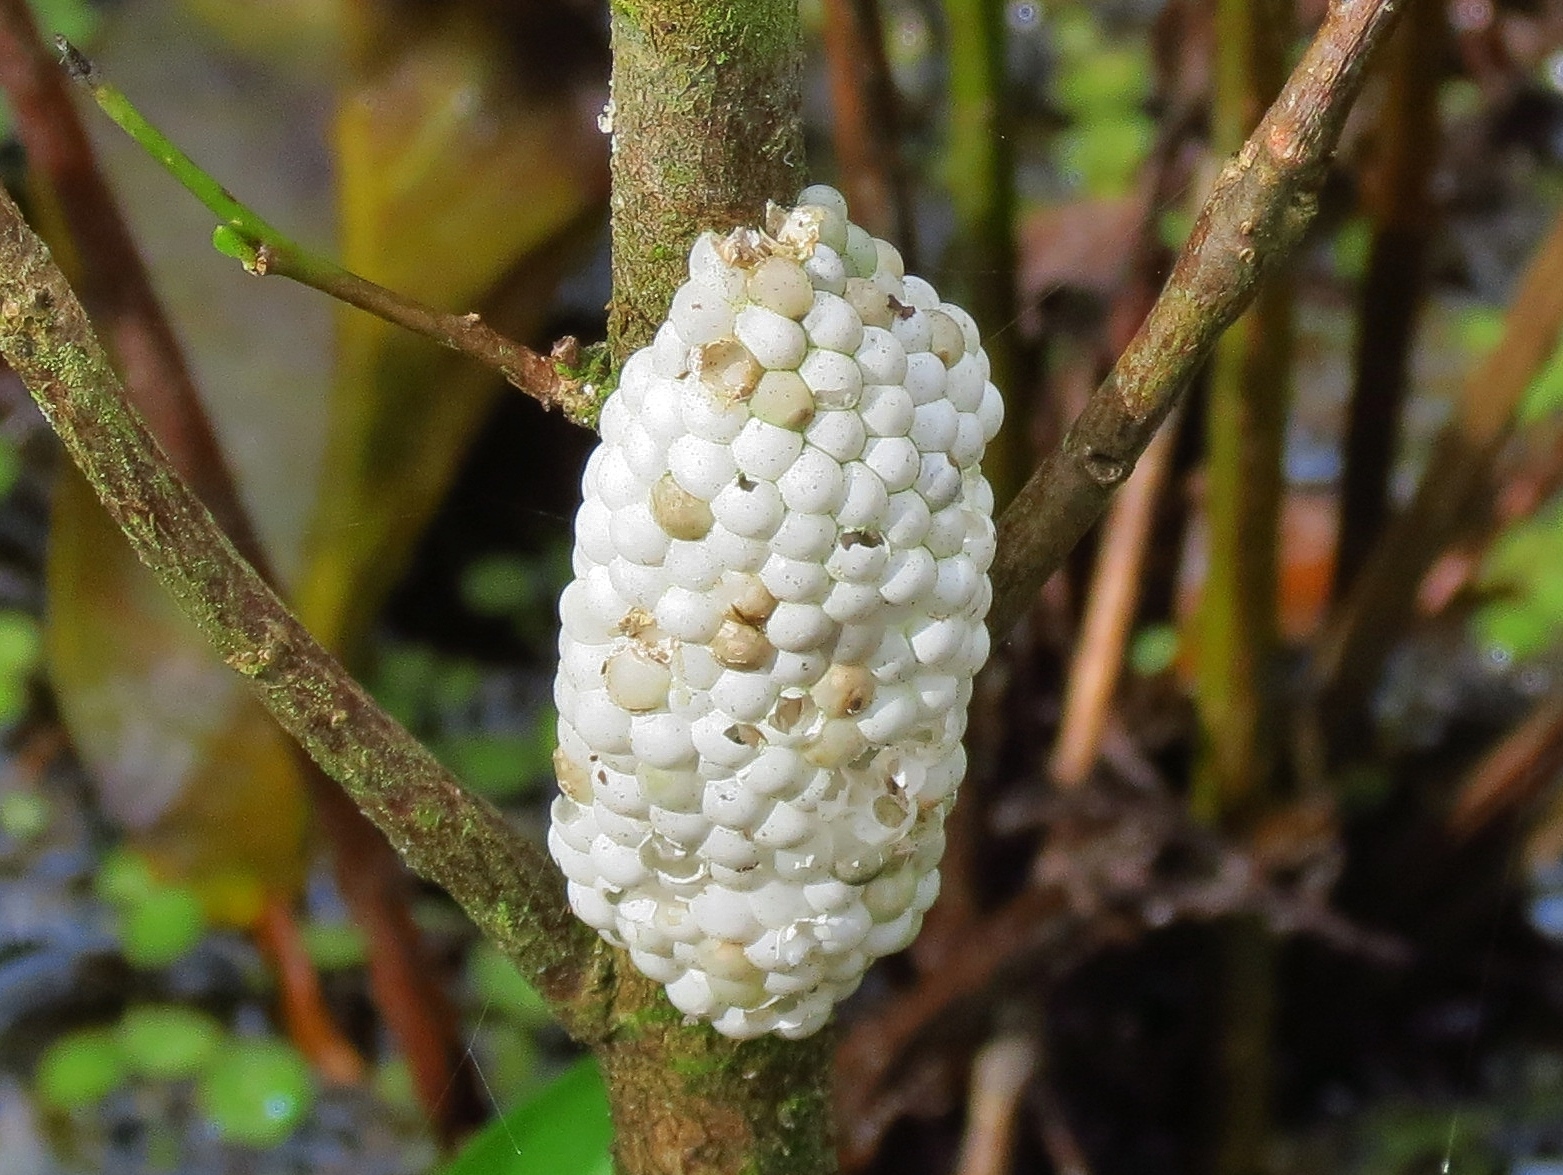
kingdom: Animalia
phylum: Mollusca
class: Gastropoda
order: Architaenioglossa
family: Ampullariidae
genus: Pomacea
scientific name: Pomacea canaliculata
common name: Channeled applesnail
